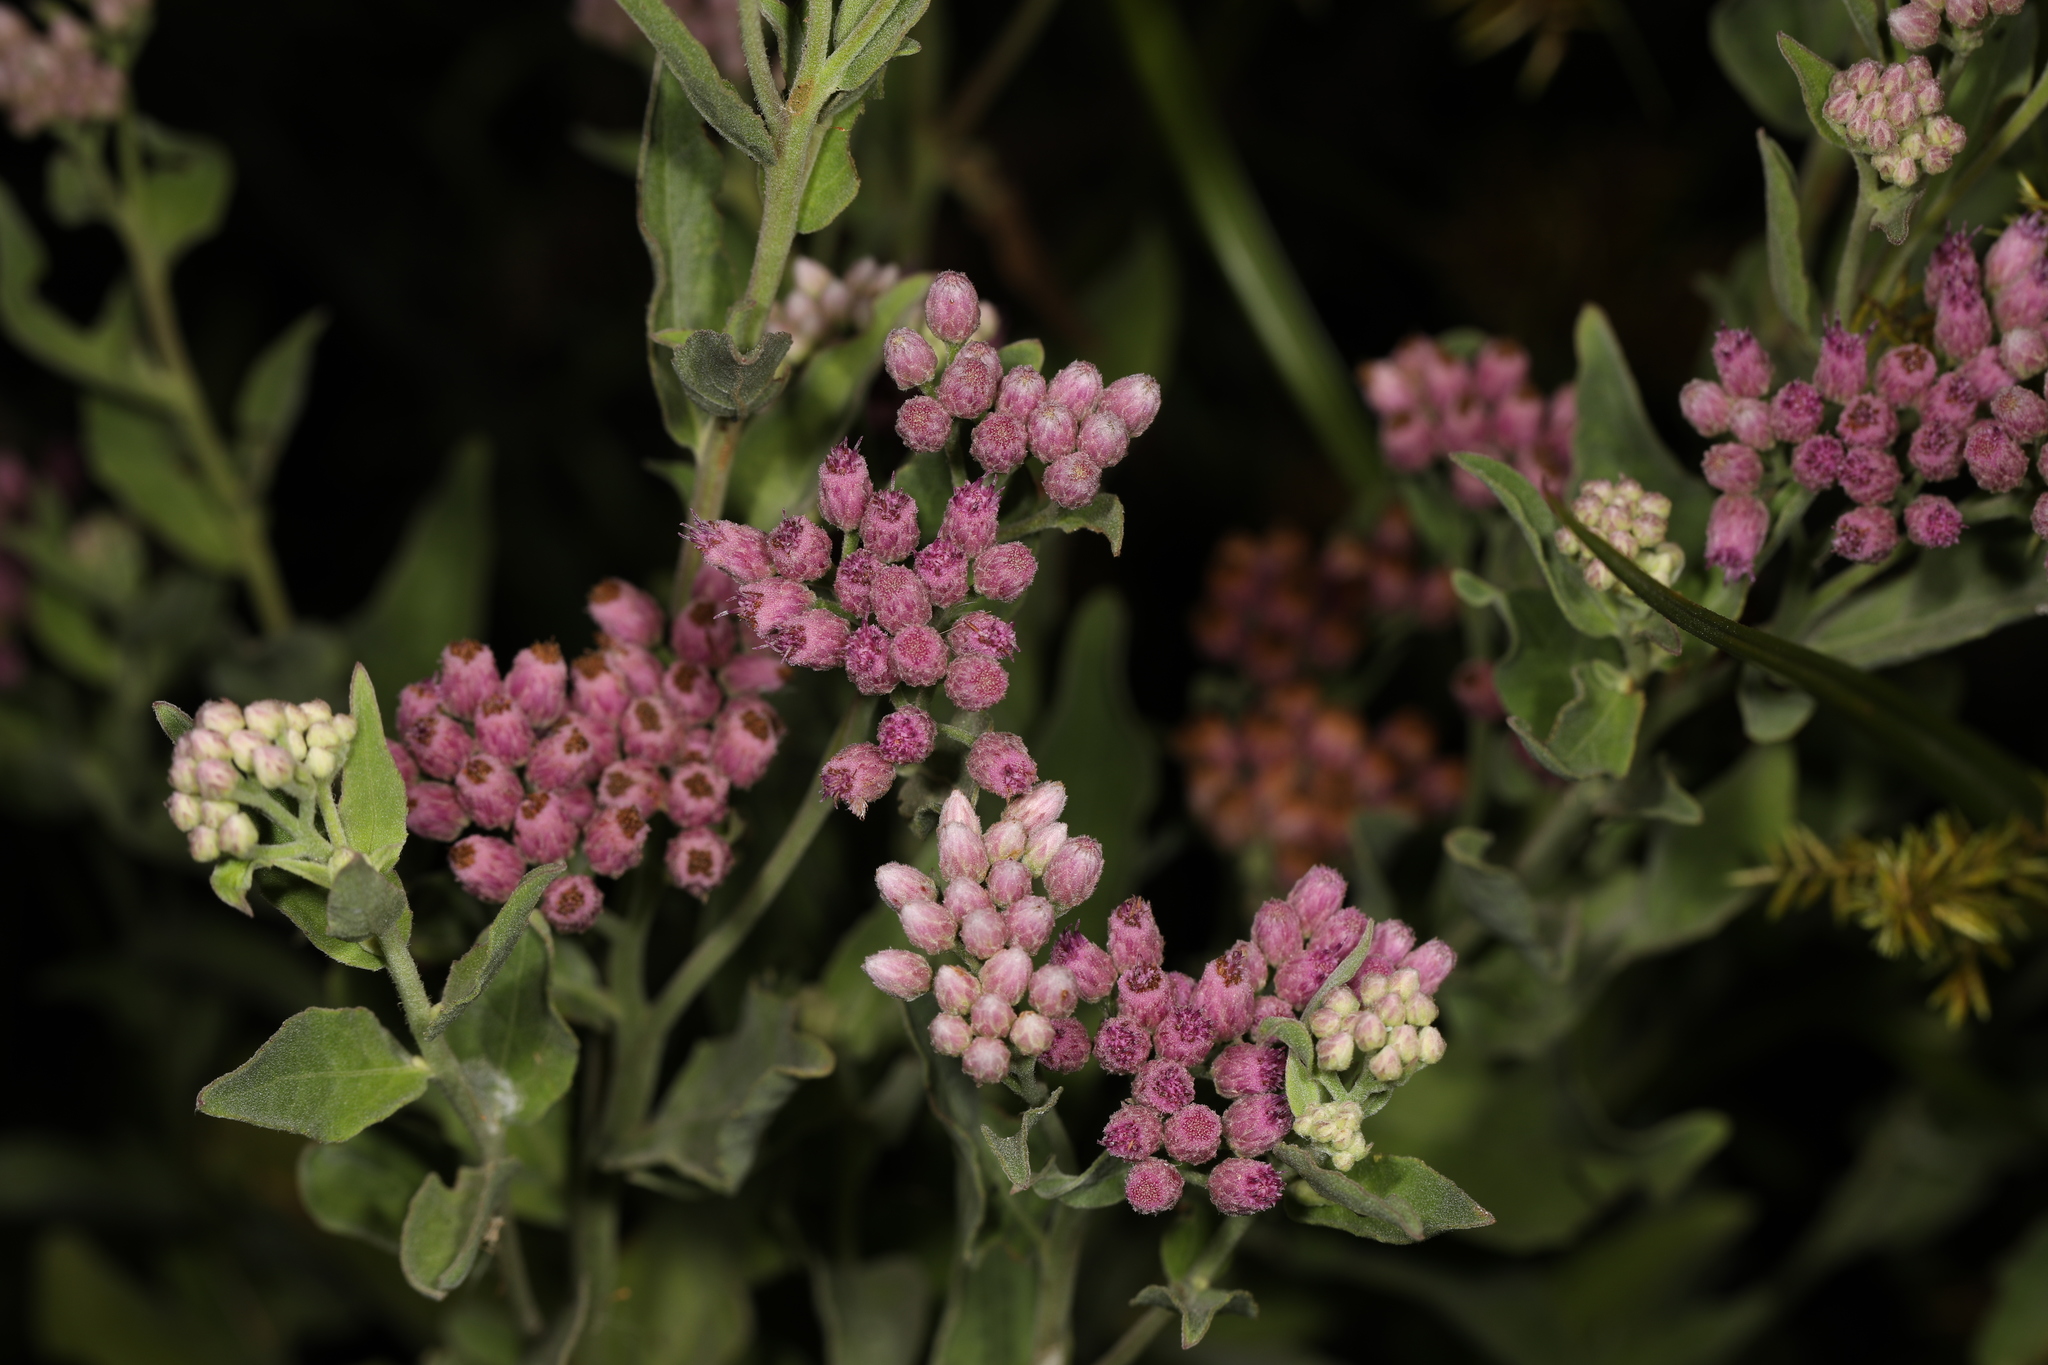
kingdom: Plantae
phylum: Tracheophyta
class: Magnoliopsida
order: Asterales
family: Asteraceae
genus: Pluchea
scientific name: Pluchea odorata
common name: Saltmarsh fleabane
